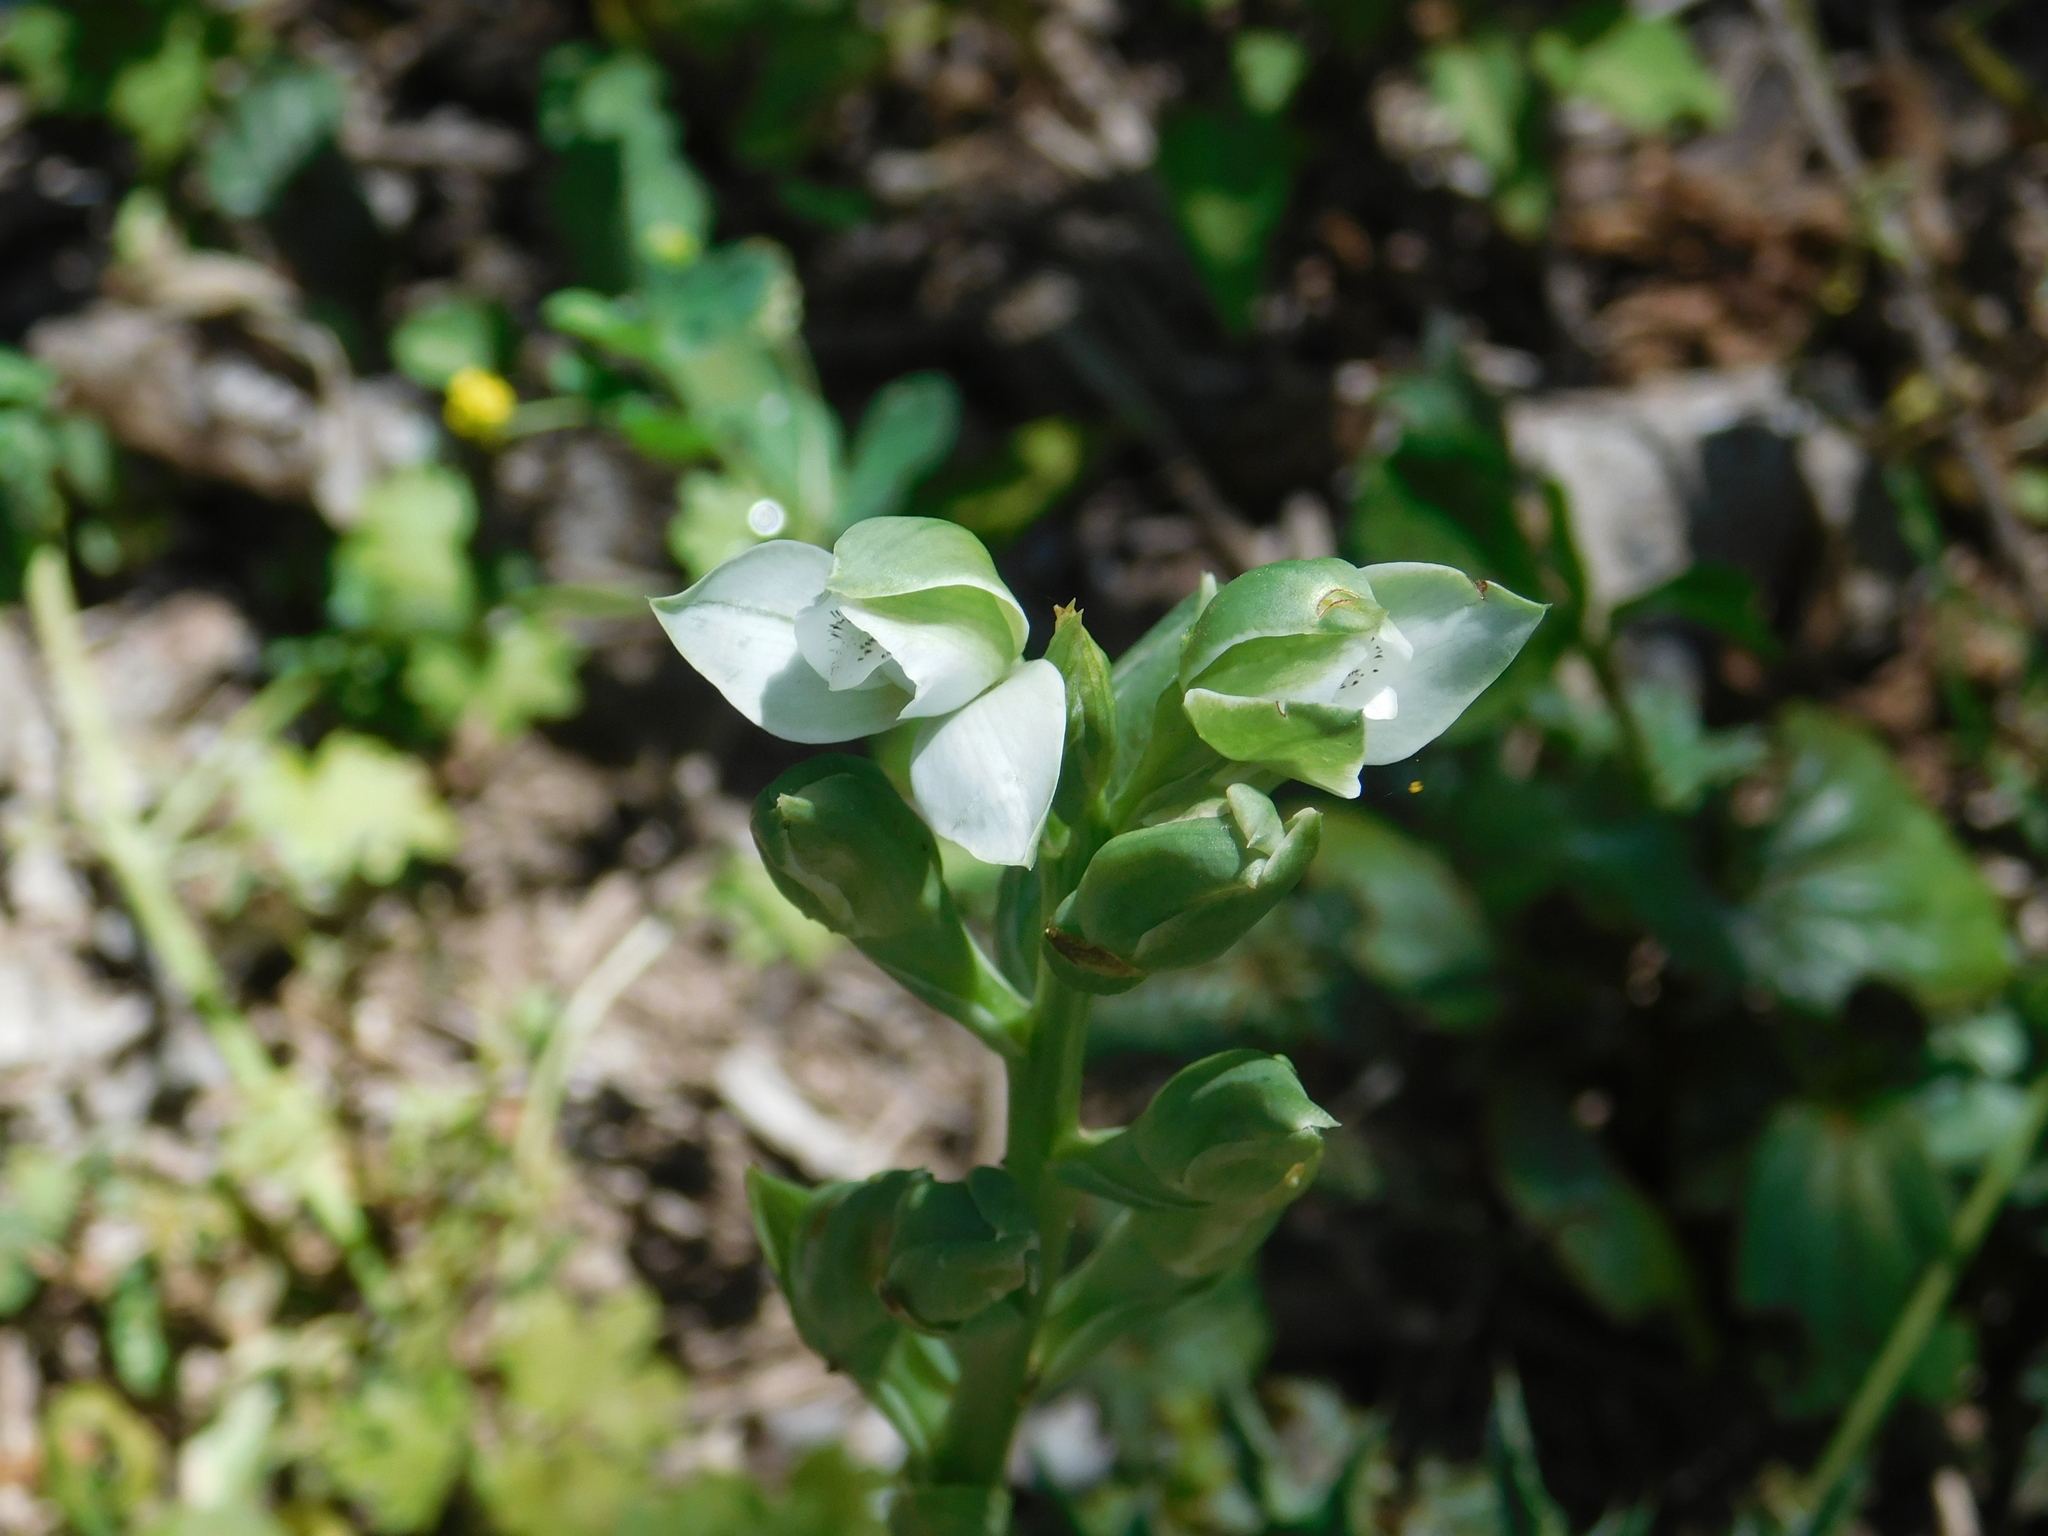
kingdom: Plantae
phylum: Tracheophyta
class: Liliopsida
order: Asparagales
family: Orchidaceae
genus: Chloraea
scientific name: Chloraea membranacea
